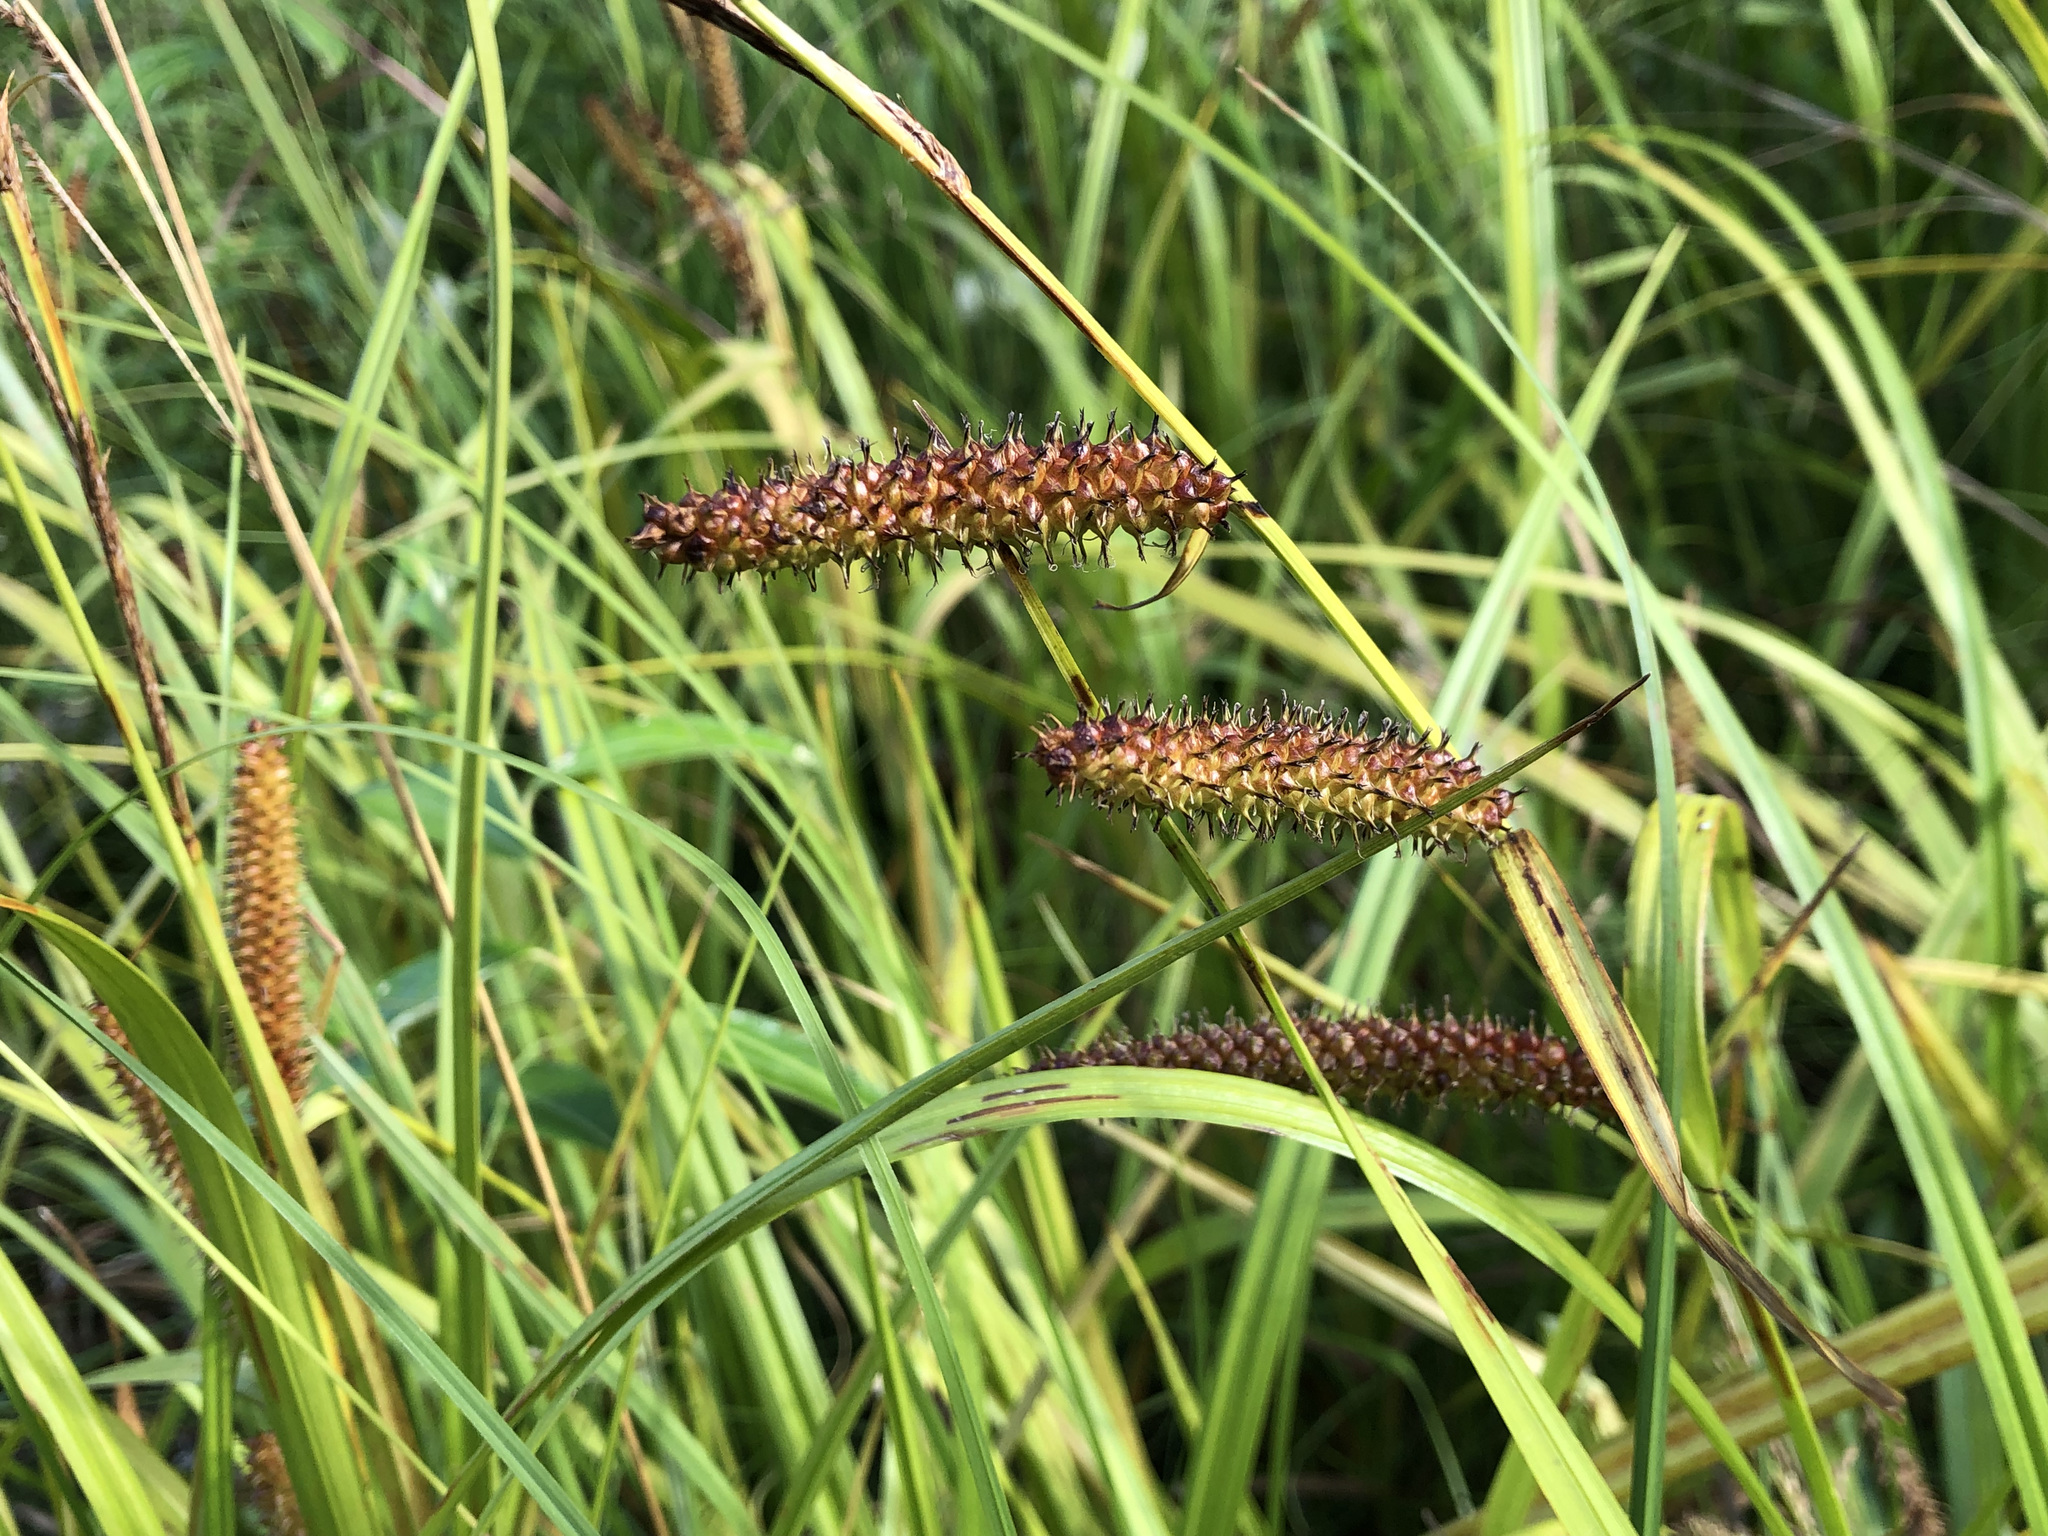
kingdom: Plantae
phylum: Tracheophyta
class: Liliopsida
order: Poales
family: Cyperaceae
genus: Carex
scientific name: Carex utriculata
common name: Beaked sedge
